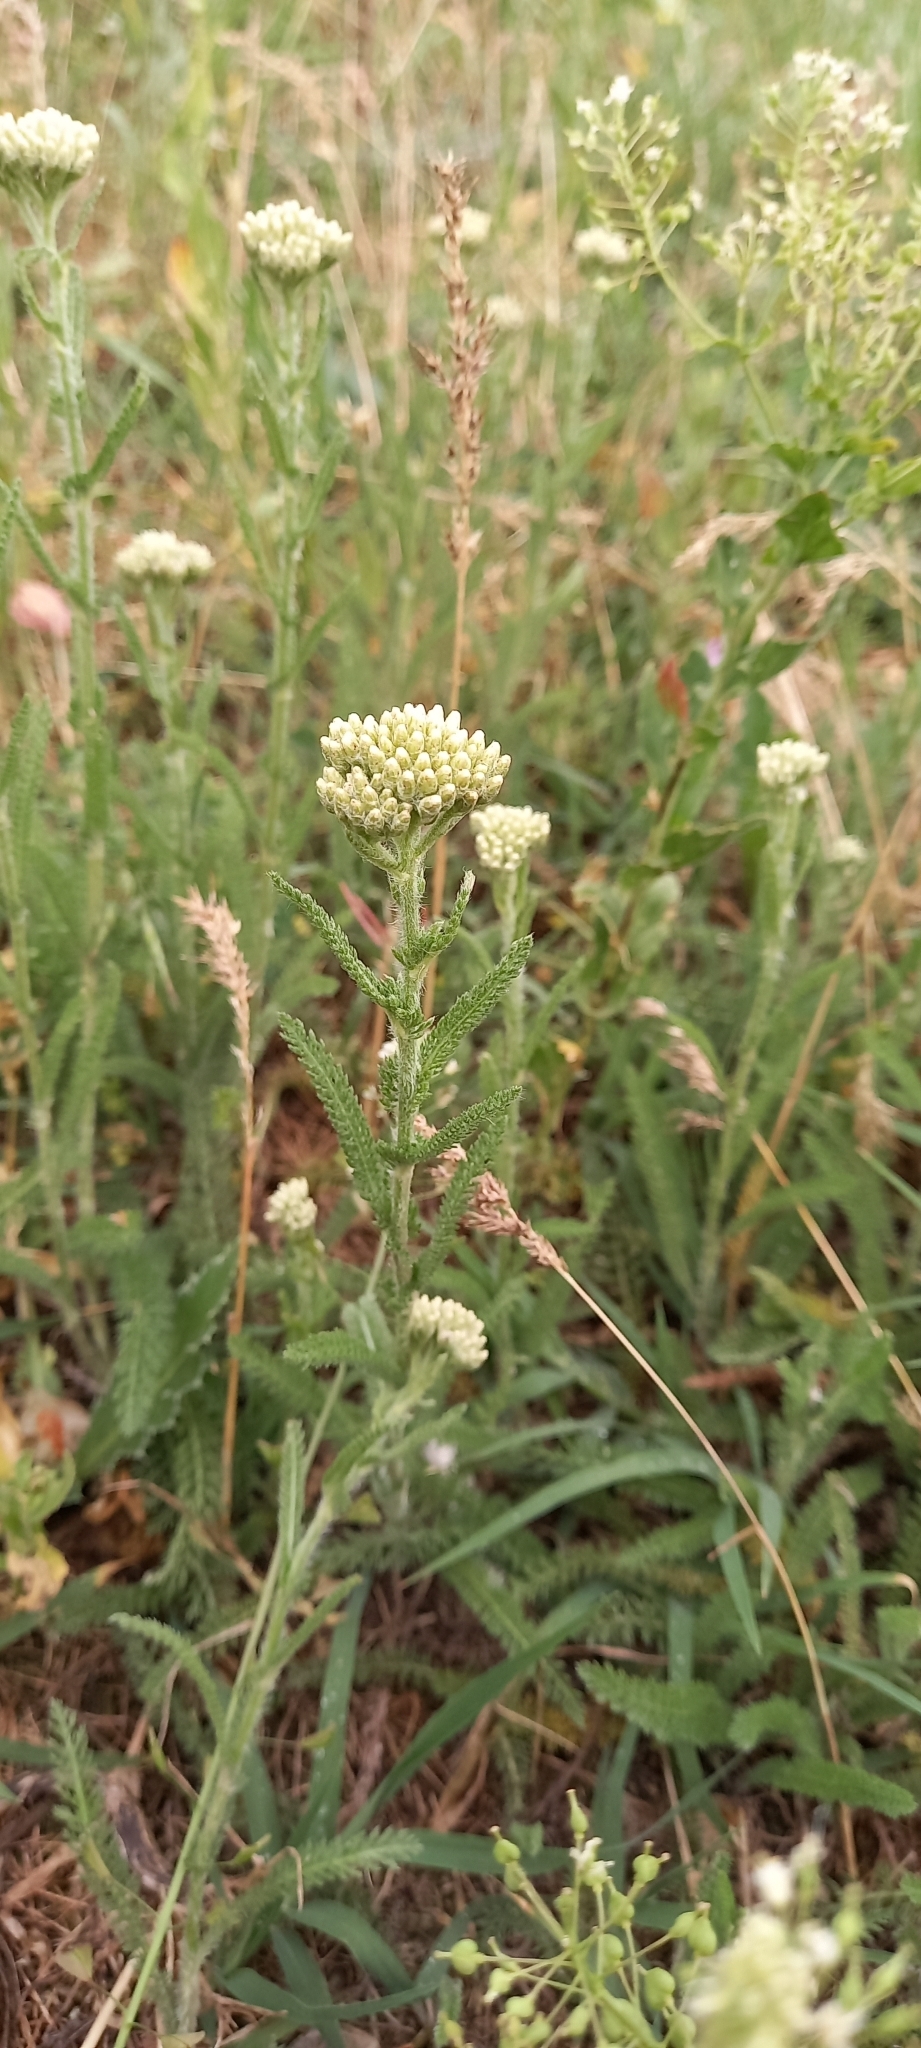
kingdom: Plantae
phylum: Tracheophyta
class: Magnoliopsida
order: Asterales
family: Asteraceae
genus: Achillea
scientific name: Achillea setacea
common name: Bristly yarrow
